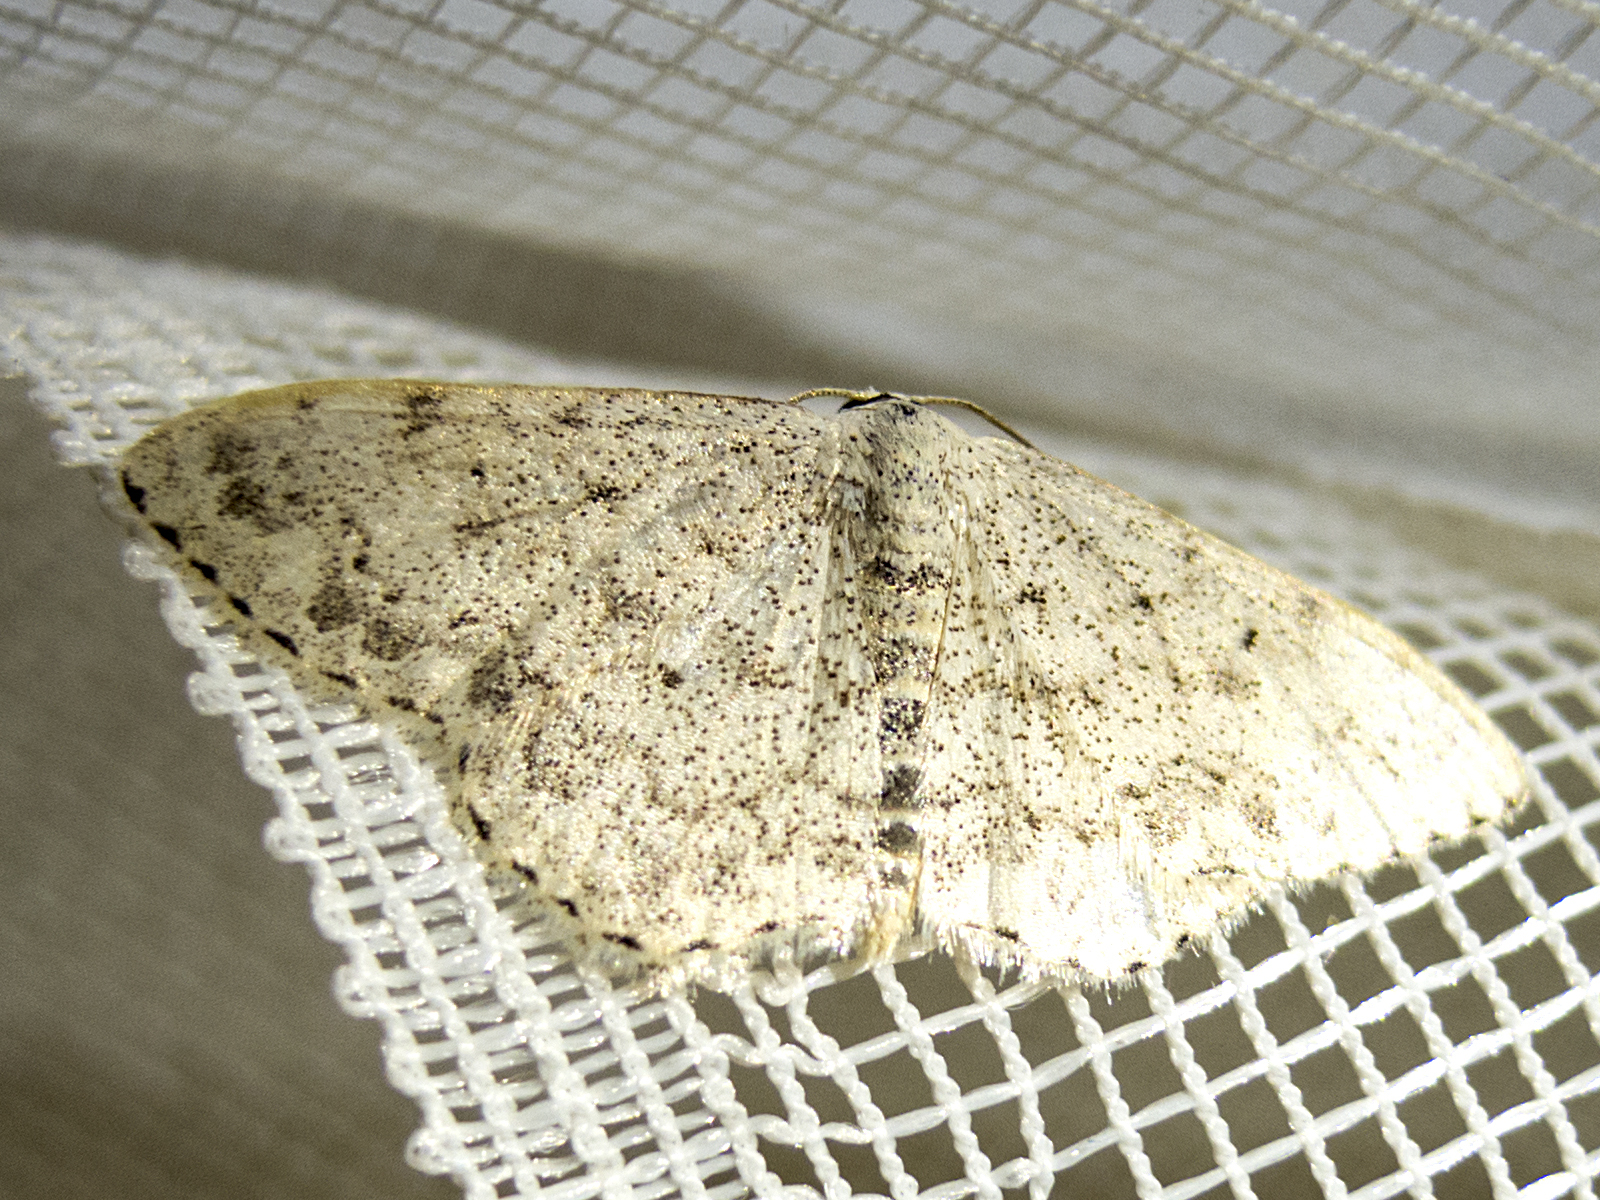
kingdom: Animalia
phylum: Arthropoda
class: Insecta
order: Lepidoptera
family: Geometridae
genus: Scopula
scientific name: Scopula marginepunctata
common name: Mullein wave
